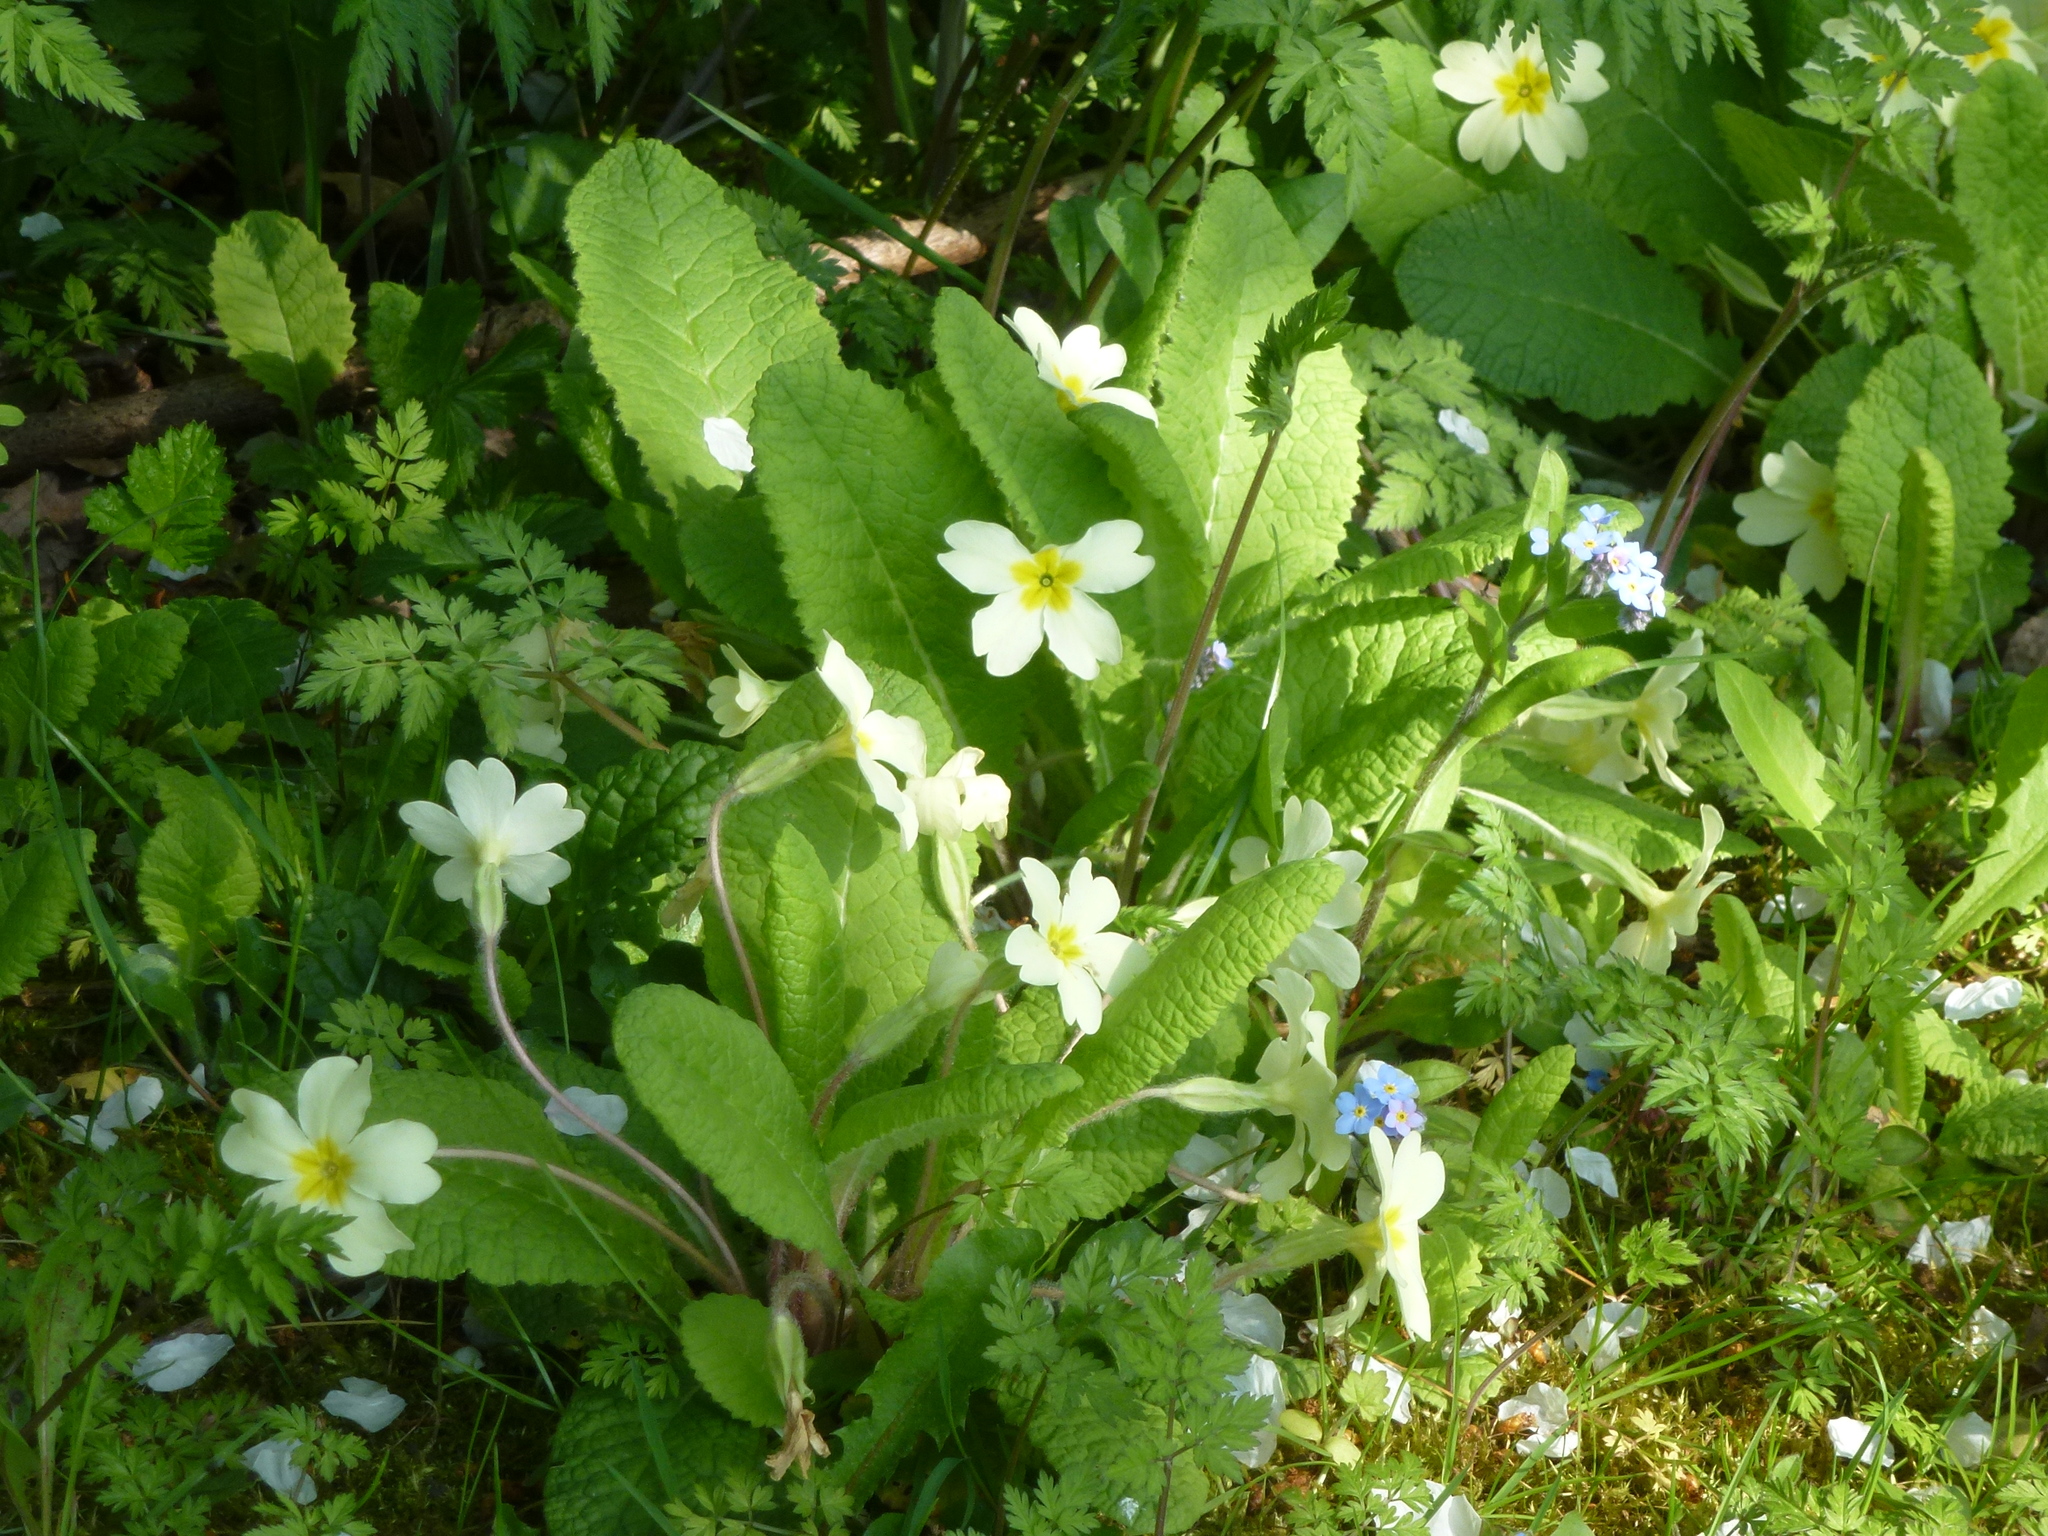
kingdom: Plantae
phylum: Tracheophyta
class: Magnoliopsida
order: Ericales
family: Primulaceae
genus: Primula
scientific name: Primula vulgaris
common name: Primrose
